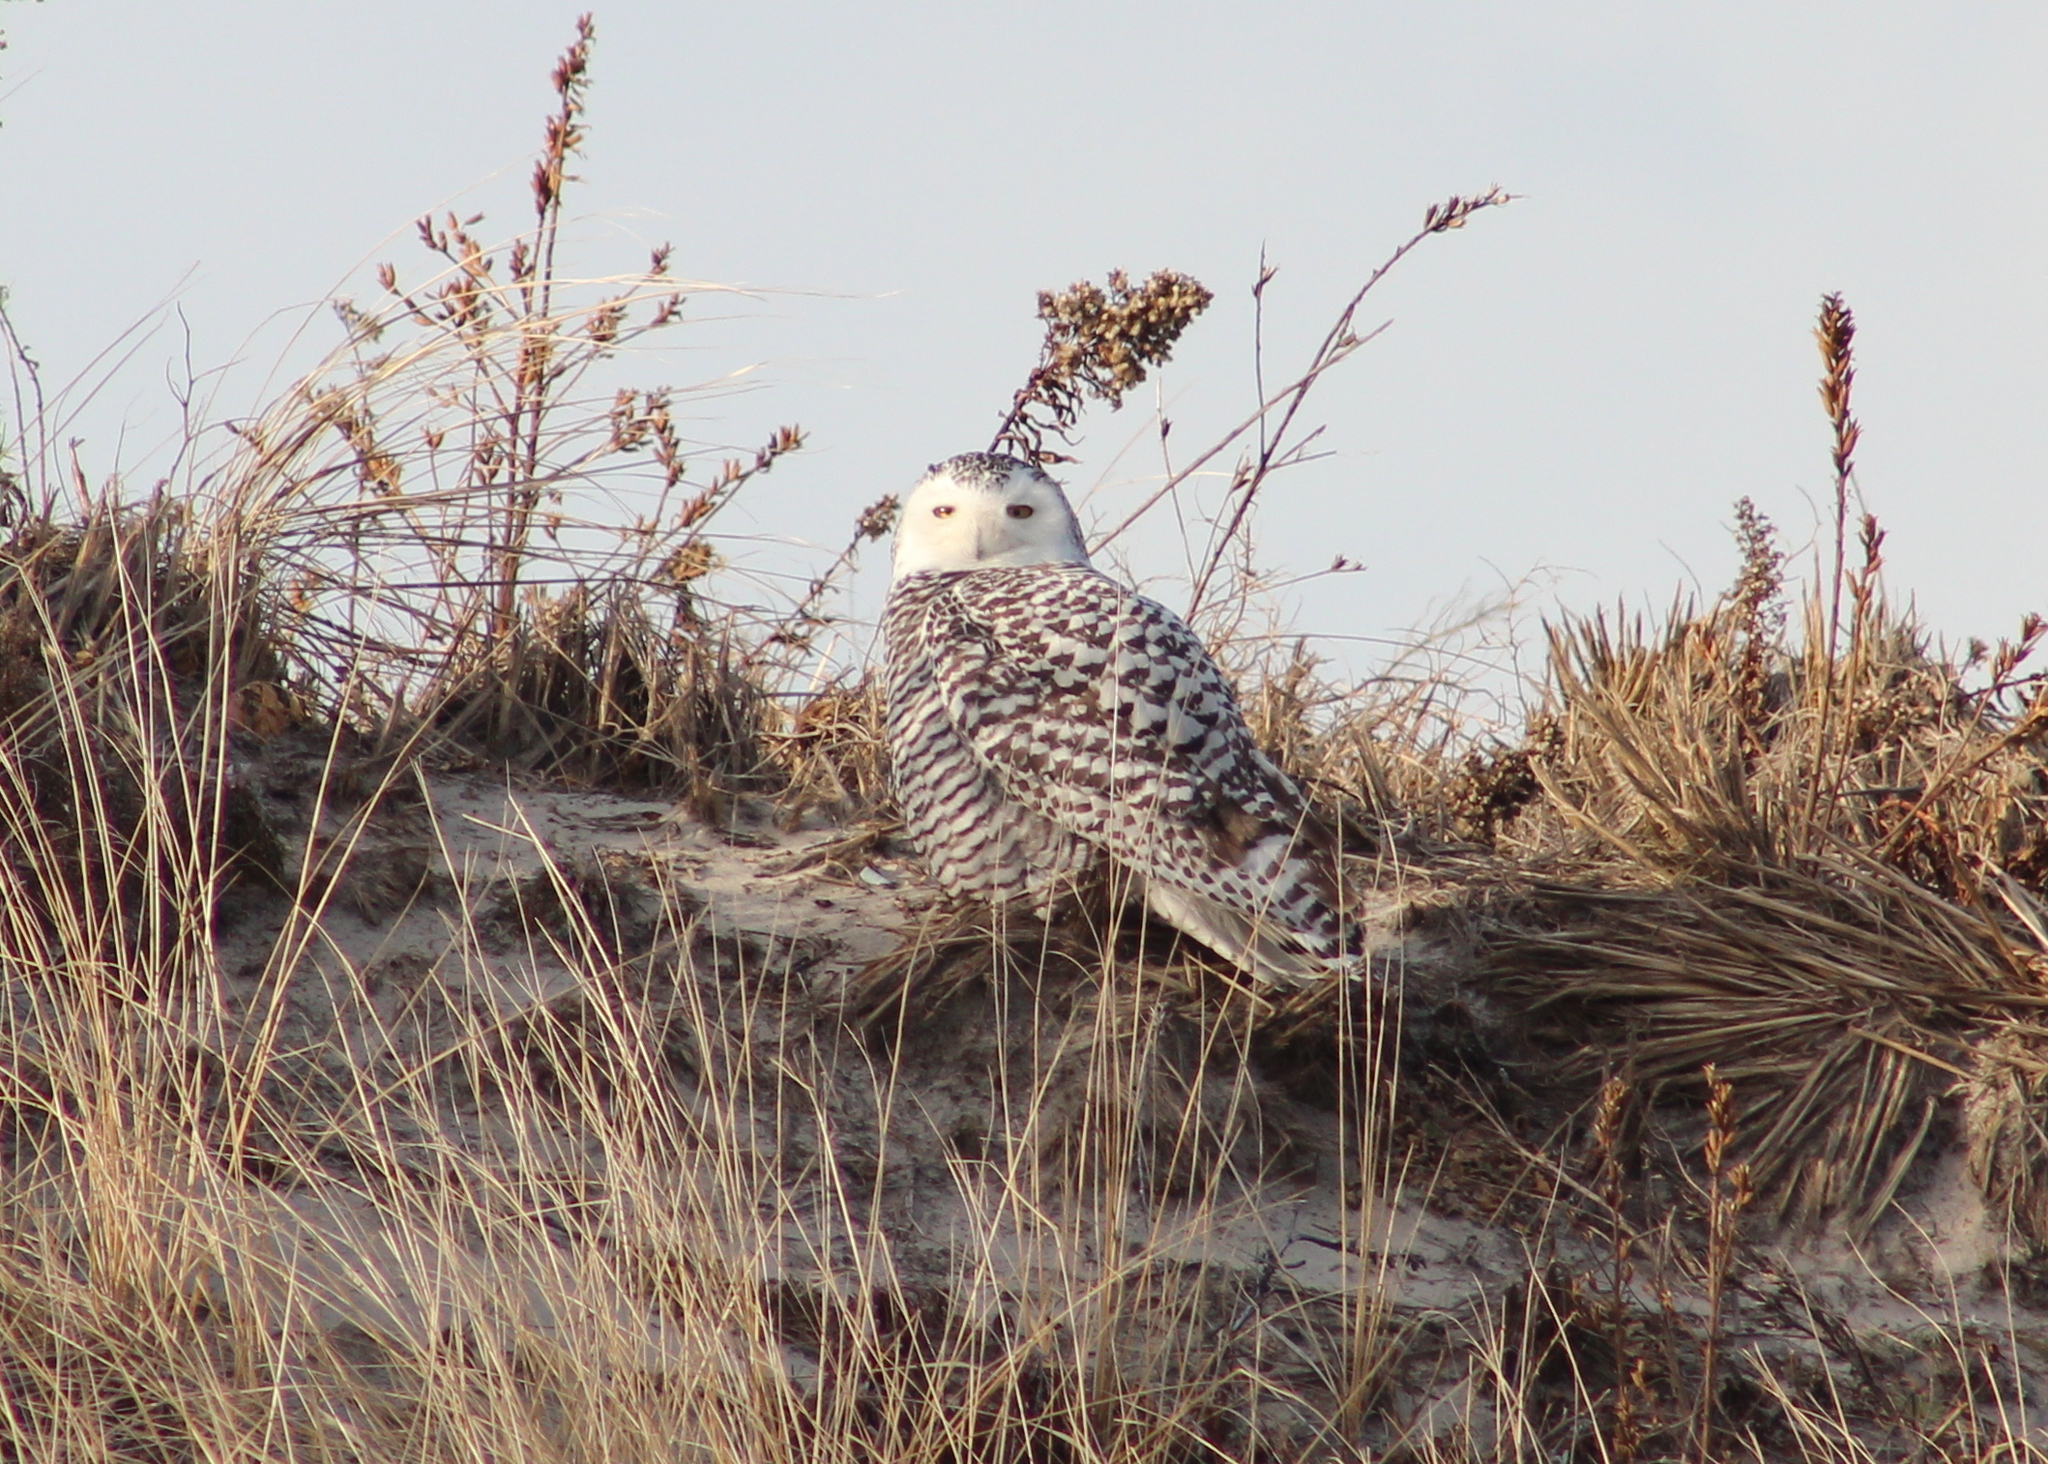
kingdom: Animalia
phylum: Chordata
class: Aves
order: Strigiformes
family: Strigidae
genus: Bubo
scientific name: Bubo scandiacus
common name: Snowy owl
